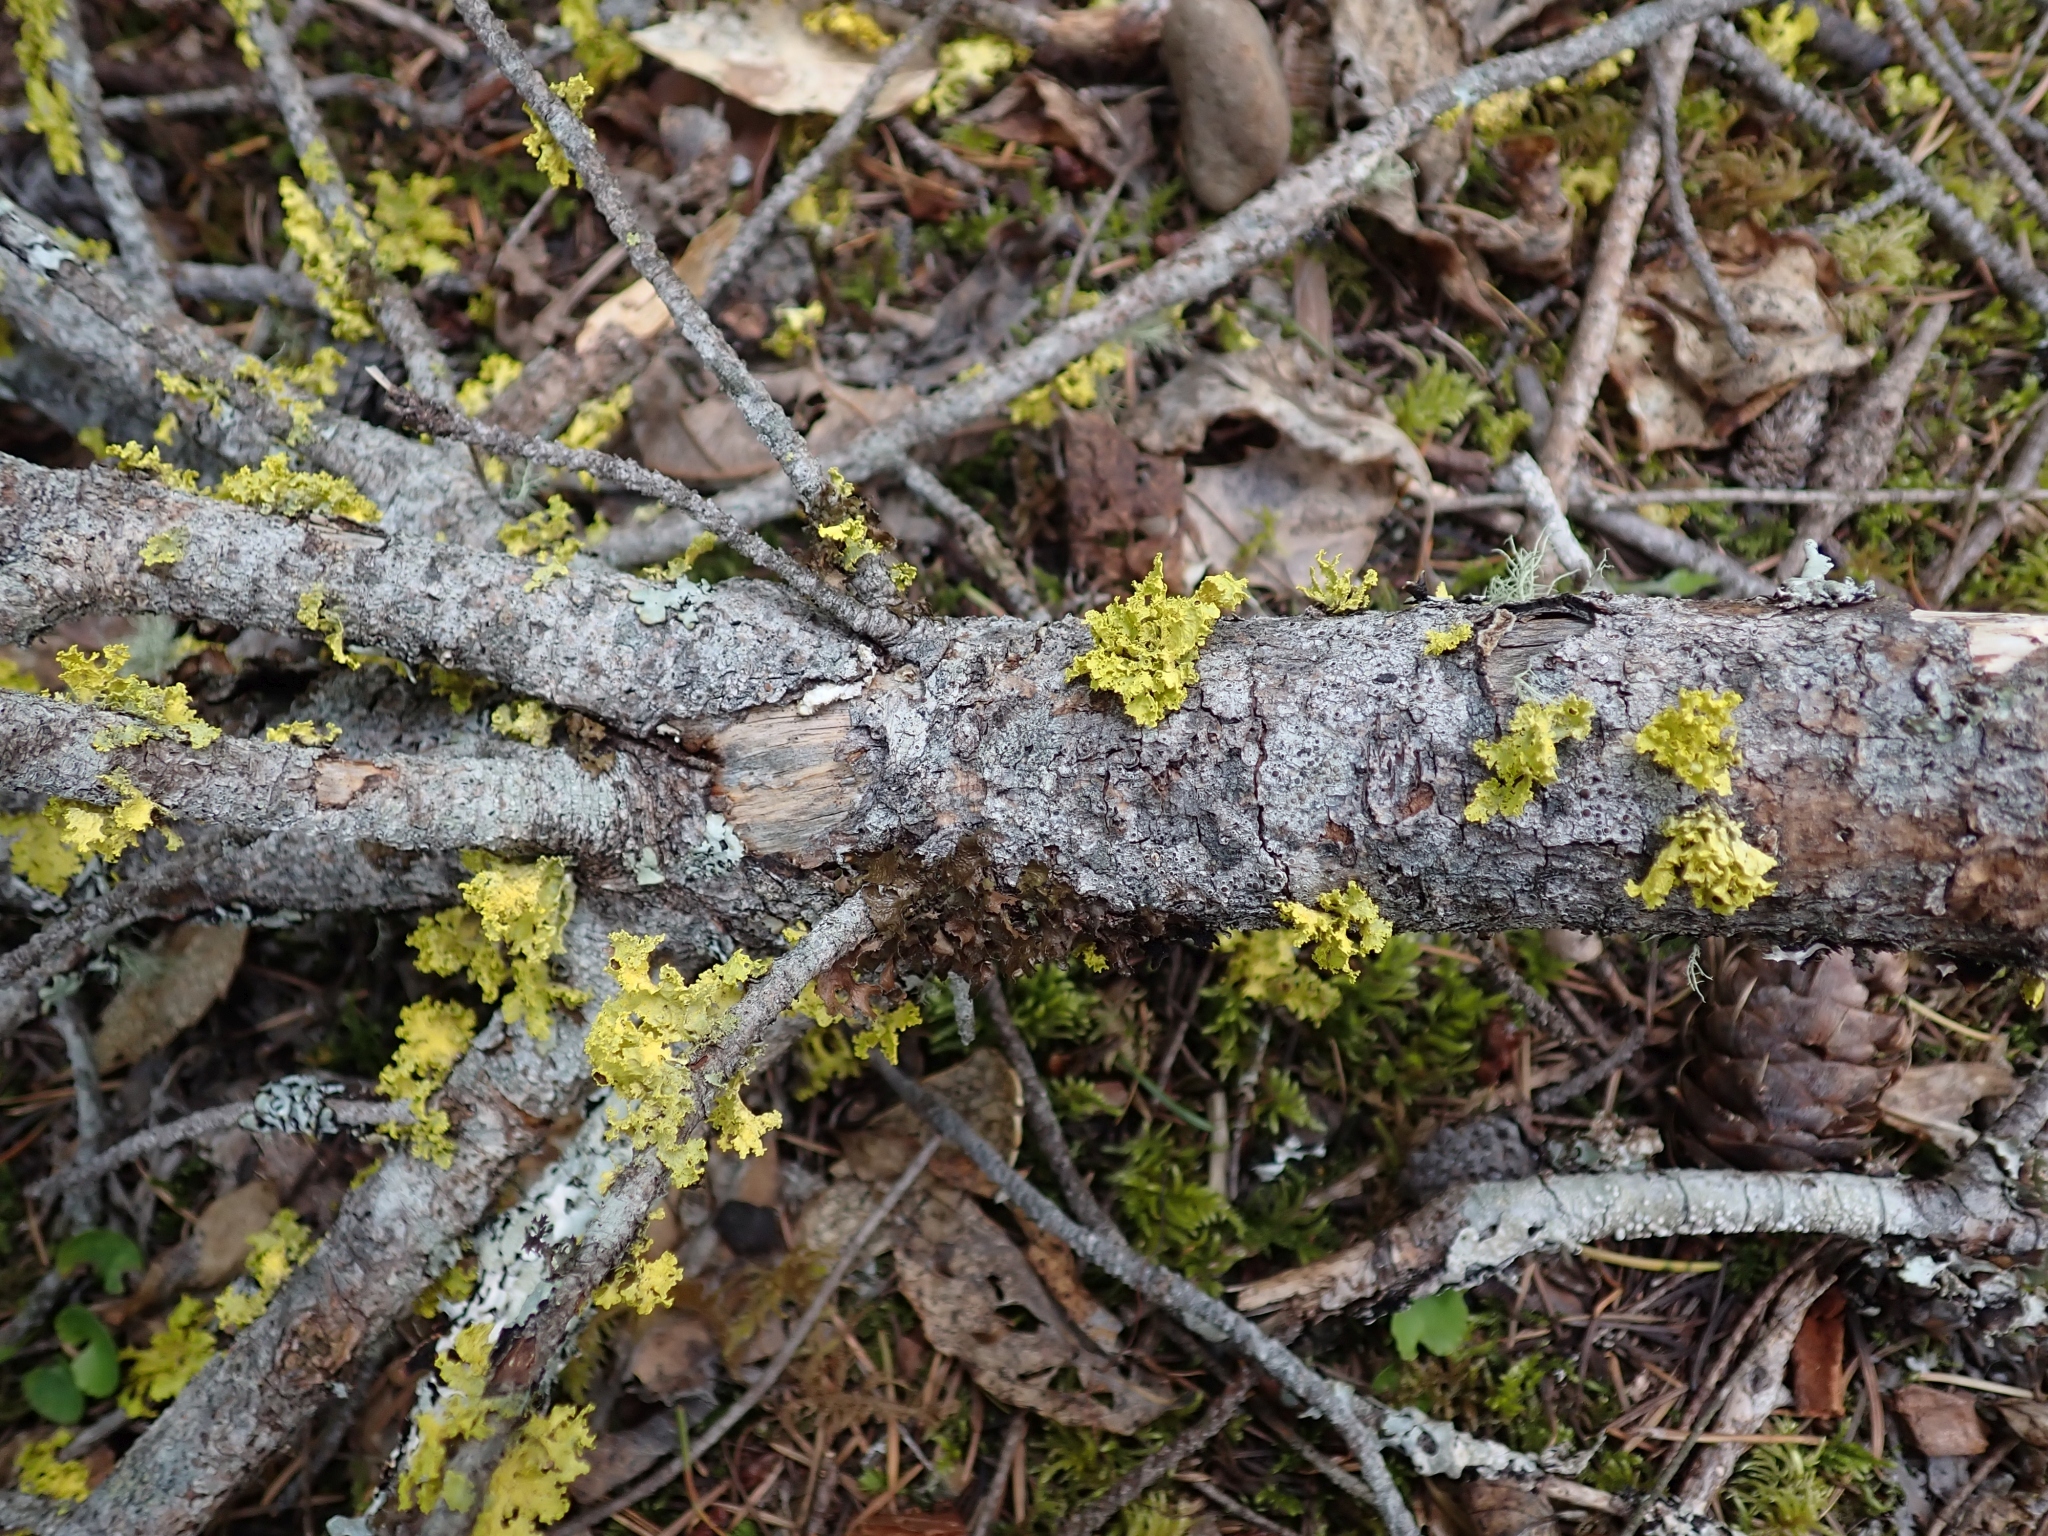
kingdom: Fungi
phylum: Ascomycota
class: Lecanoromycetes
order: Lecanorales
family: Parmeliaceae
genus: Vulpicida
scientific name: Vulpicida canadensis
